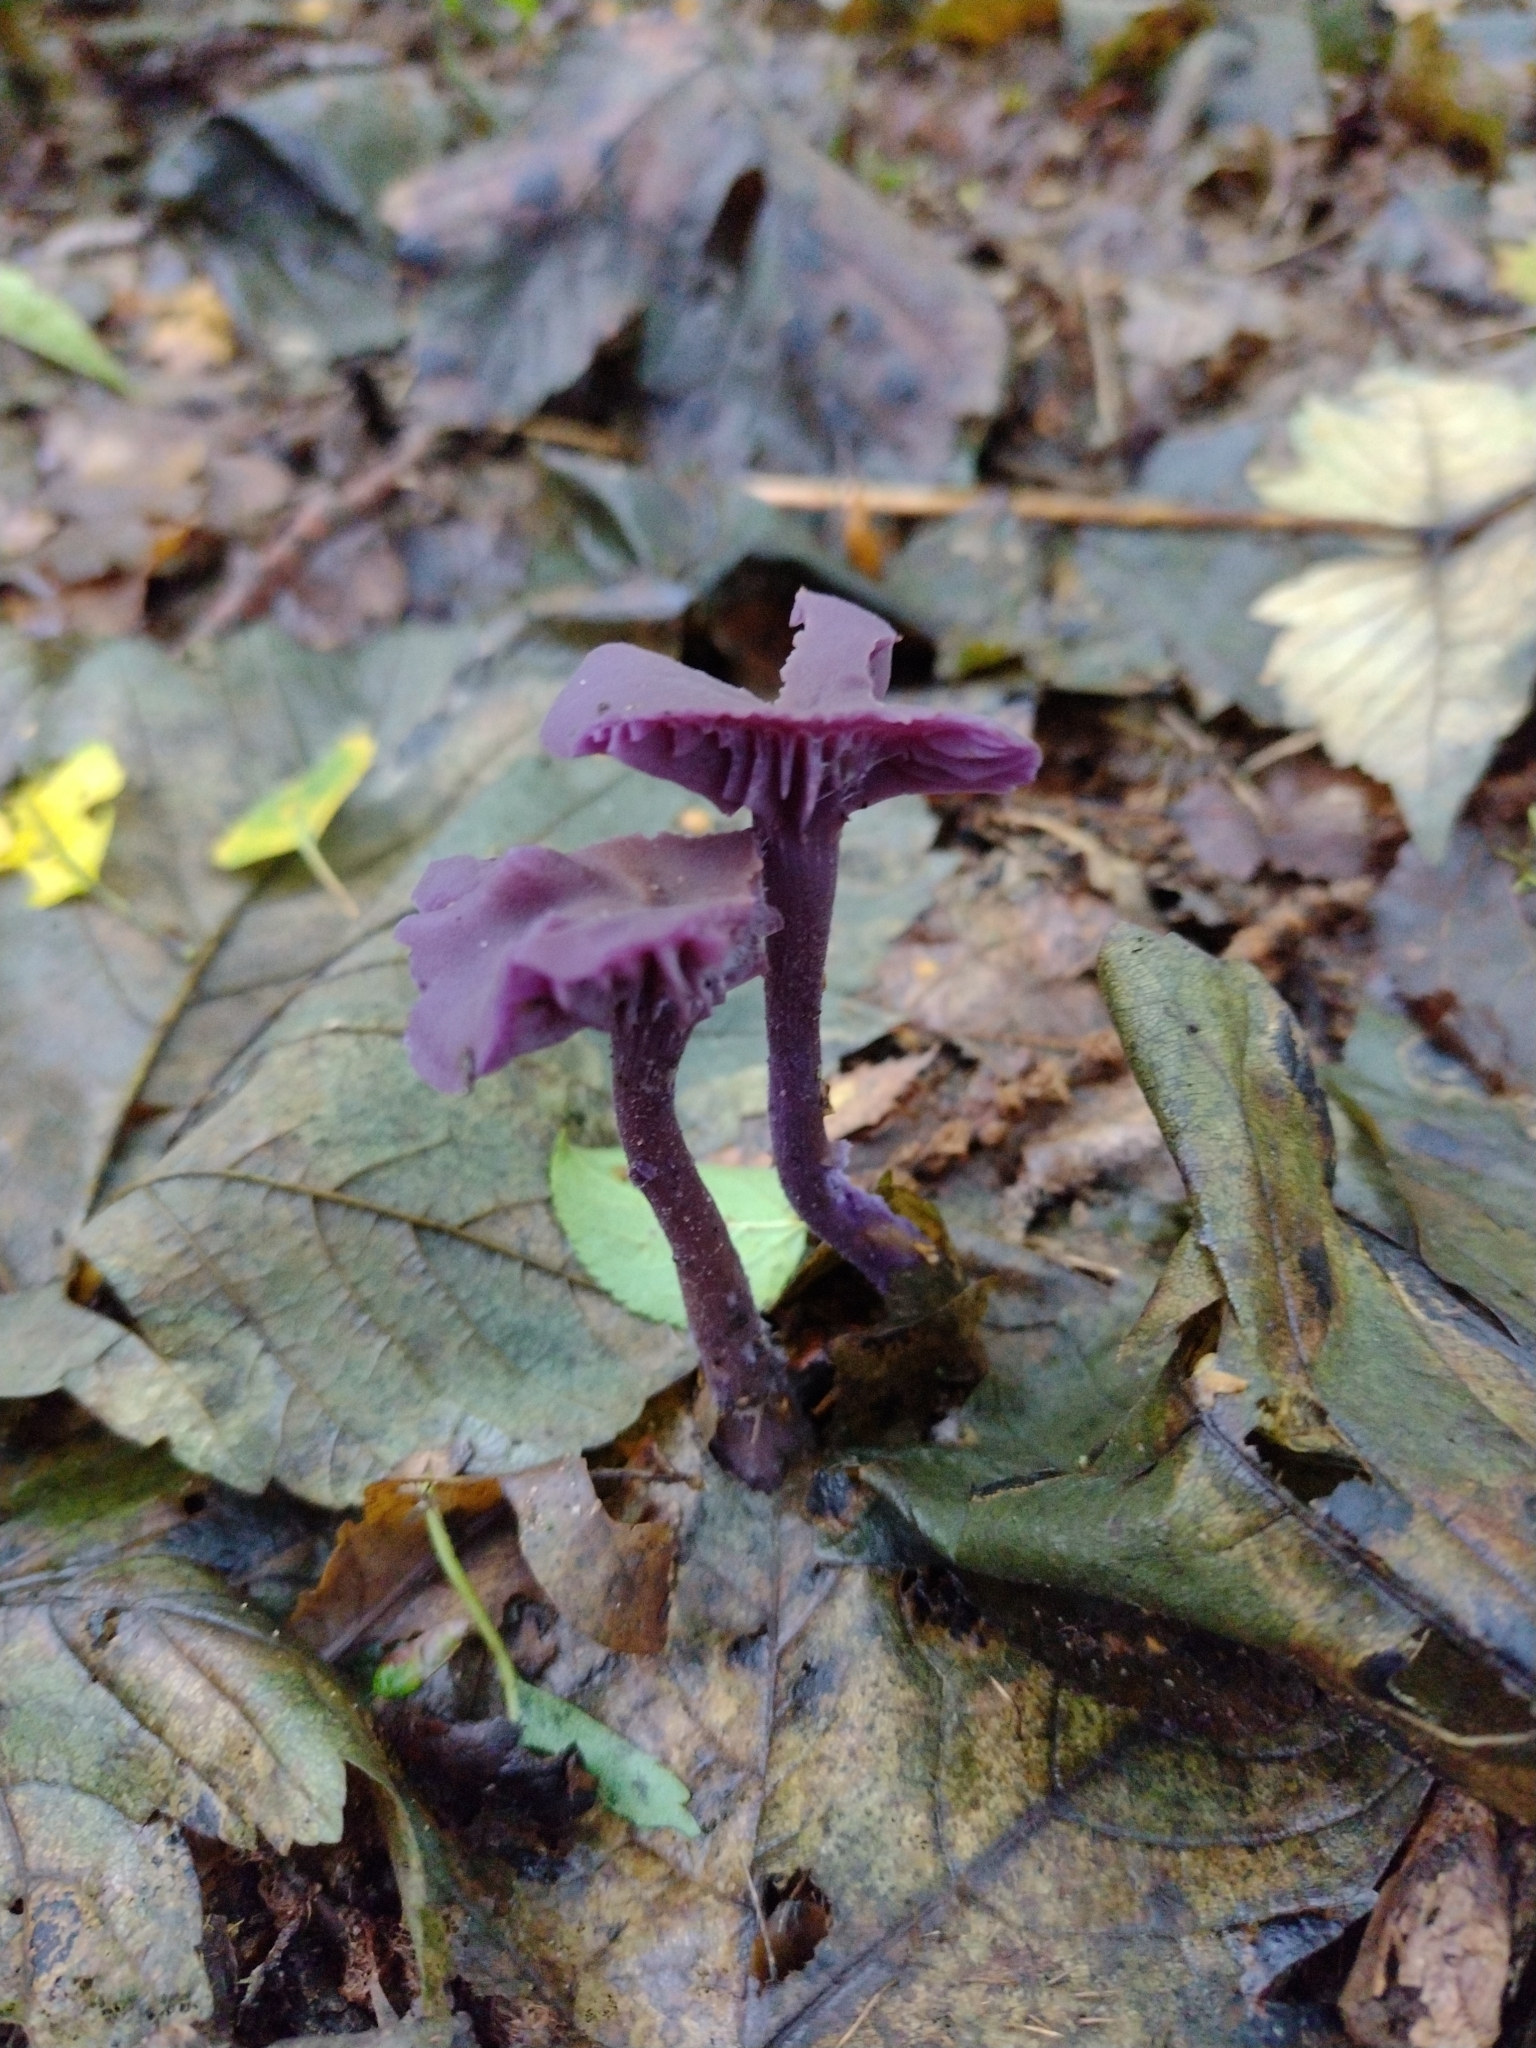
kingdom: Fungi
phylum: Basidiomycota
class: Agaricomycetes
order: Agaricales
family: Hydnangiaceae
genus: Laccaria
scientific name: Laccaria amethystina
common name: Amethyst deceiver
